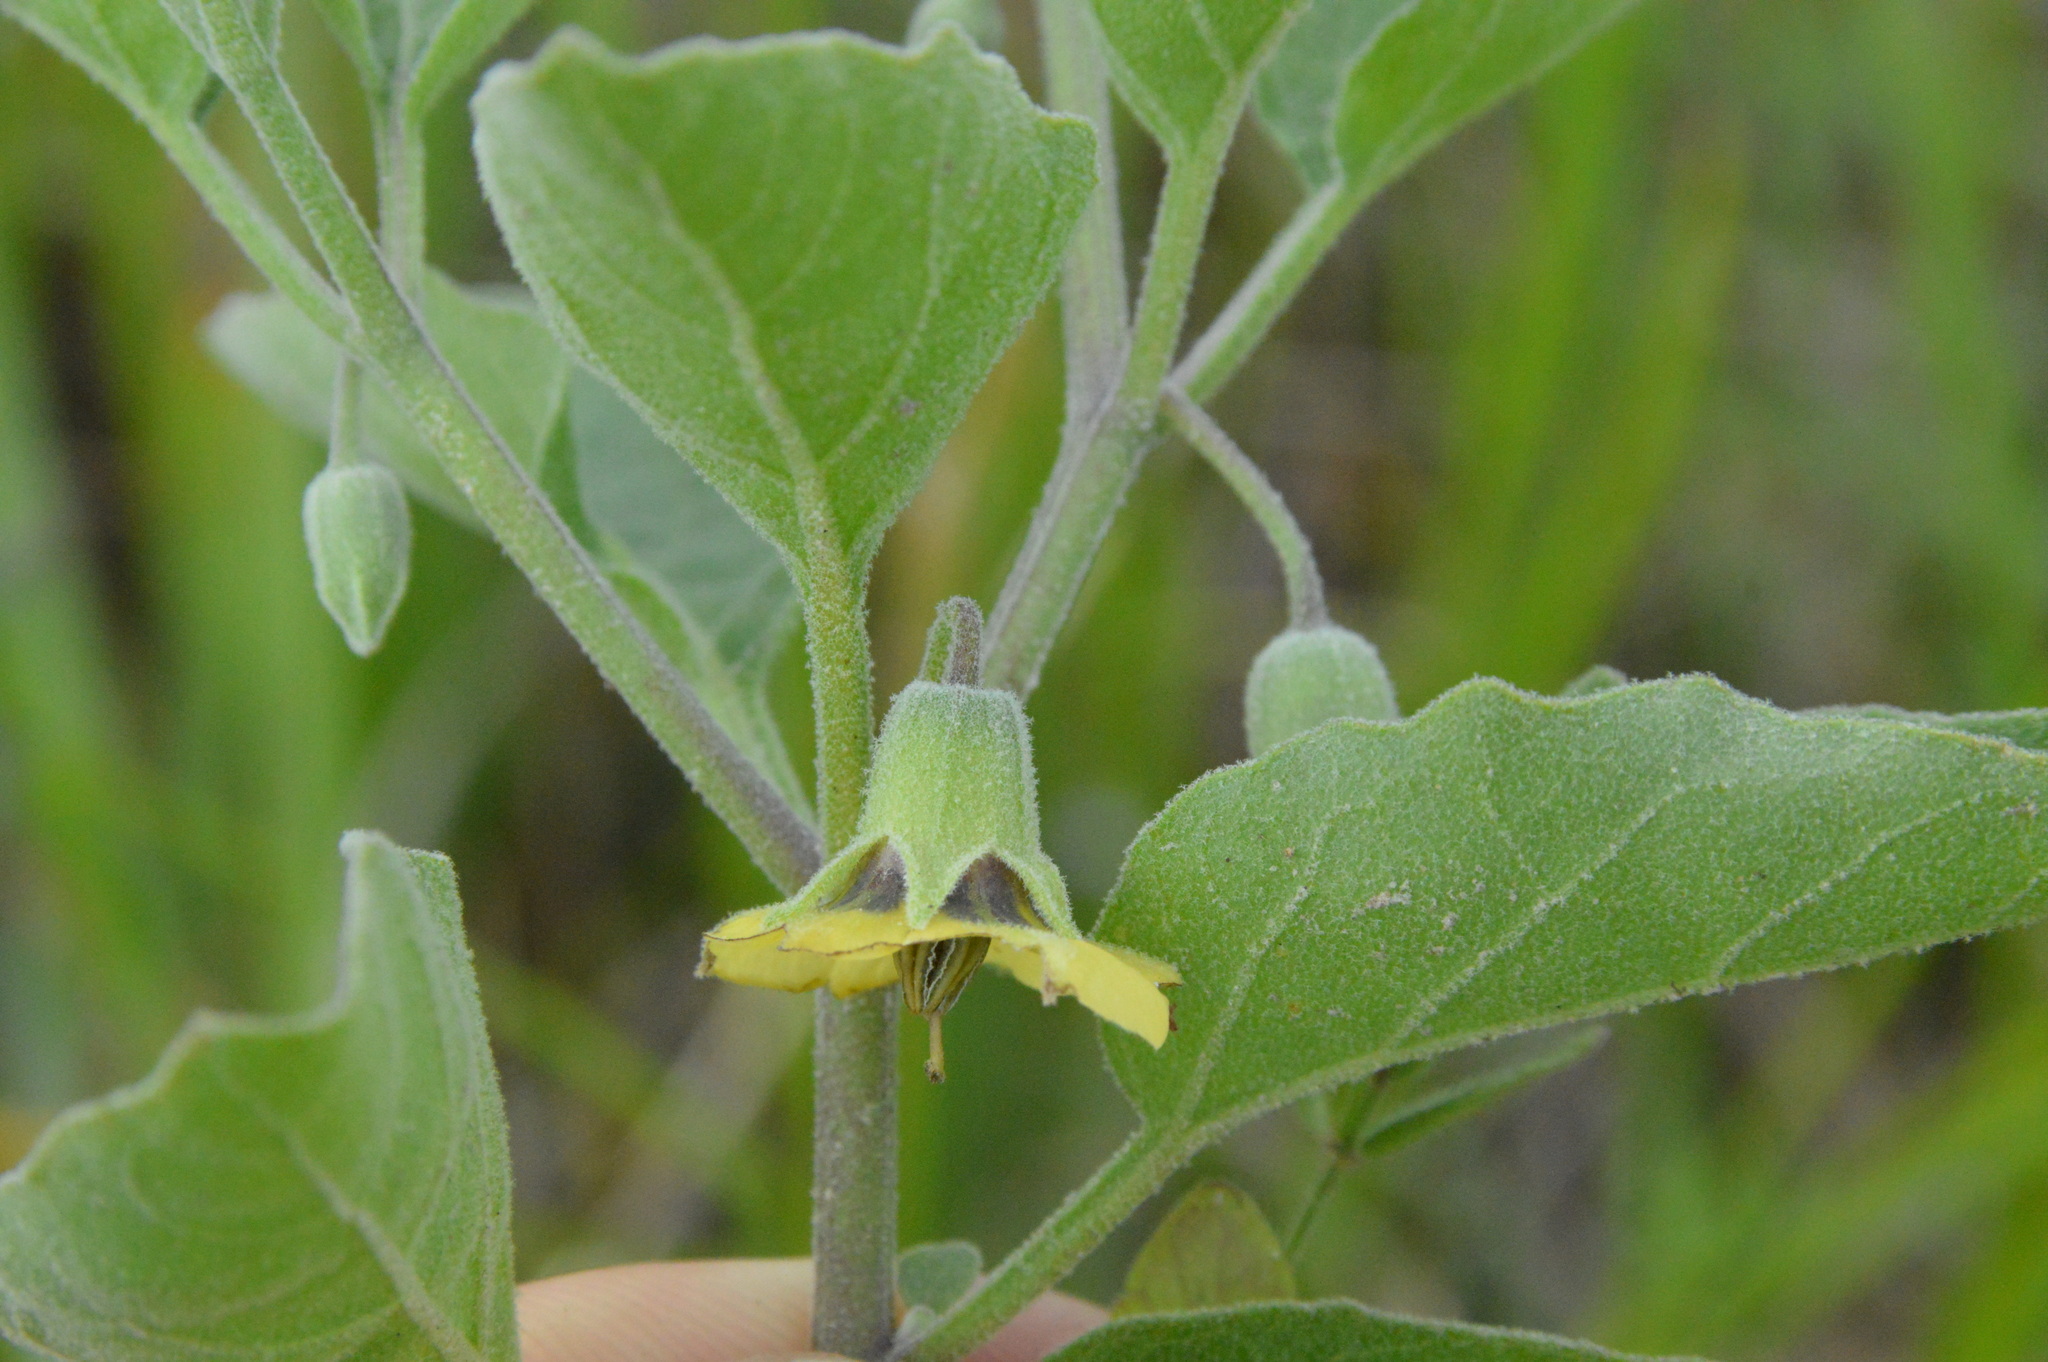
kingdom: Plantae
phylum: Tracheophyta
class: Magnoliopsida
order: Solanales
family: Solanaceae
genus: Physalis
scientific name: Physalis cinerascens
